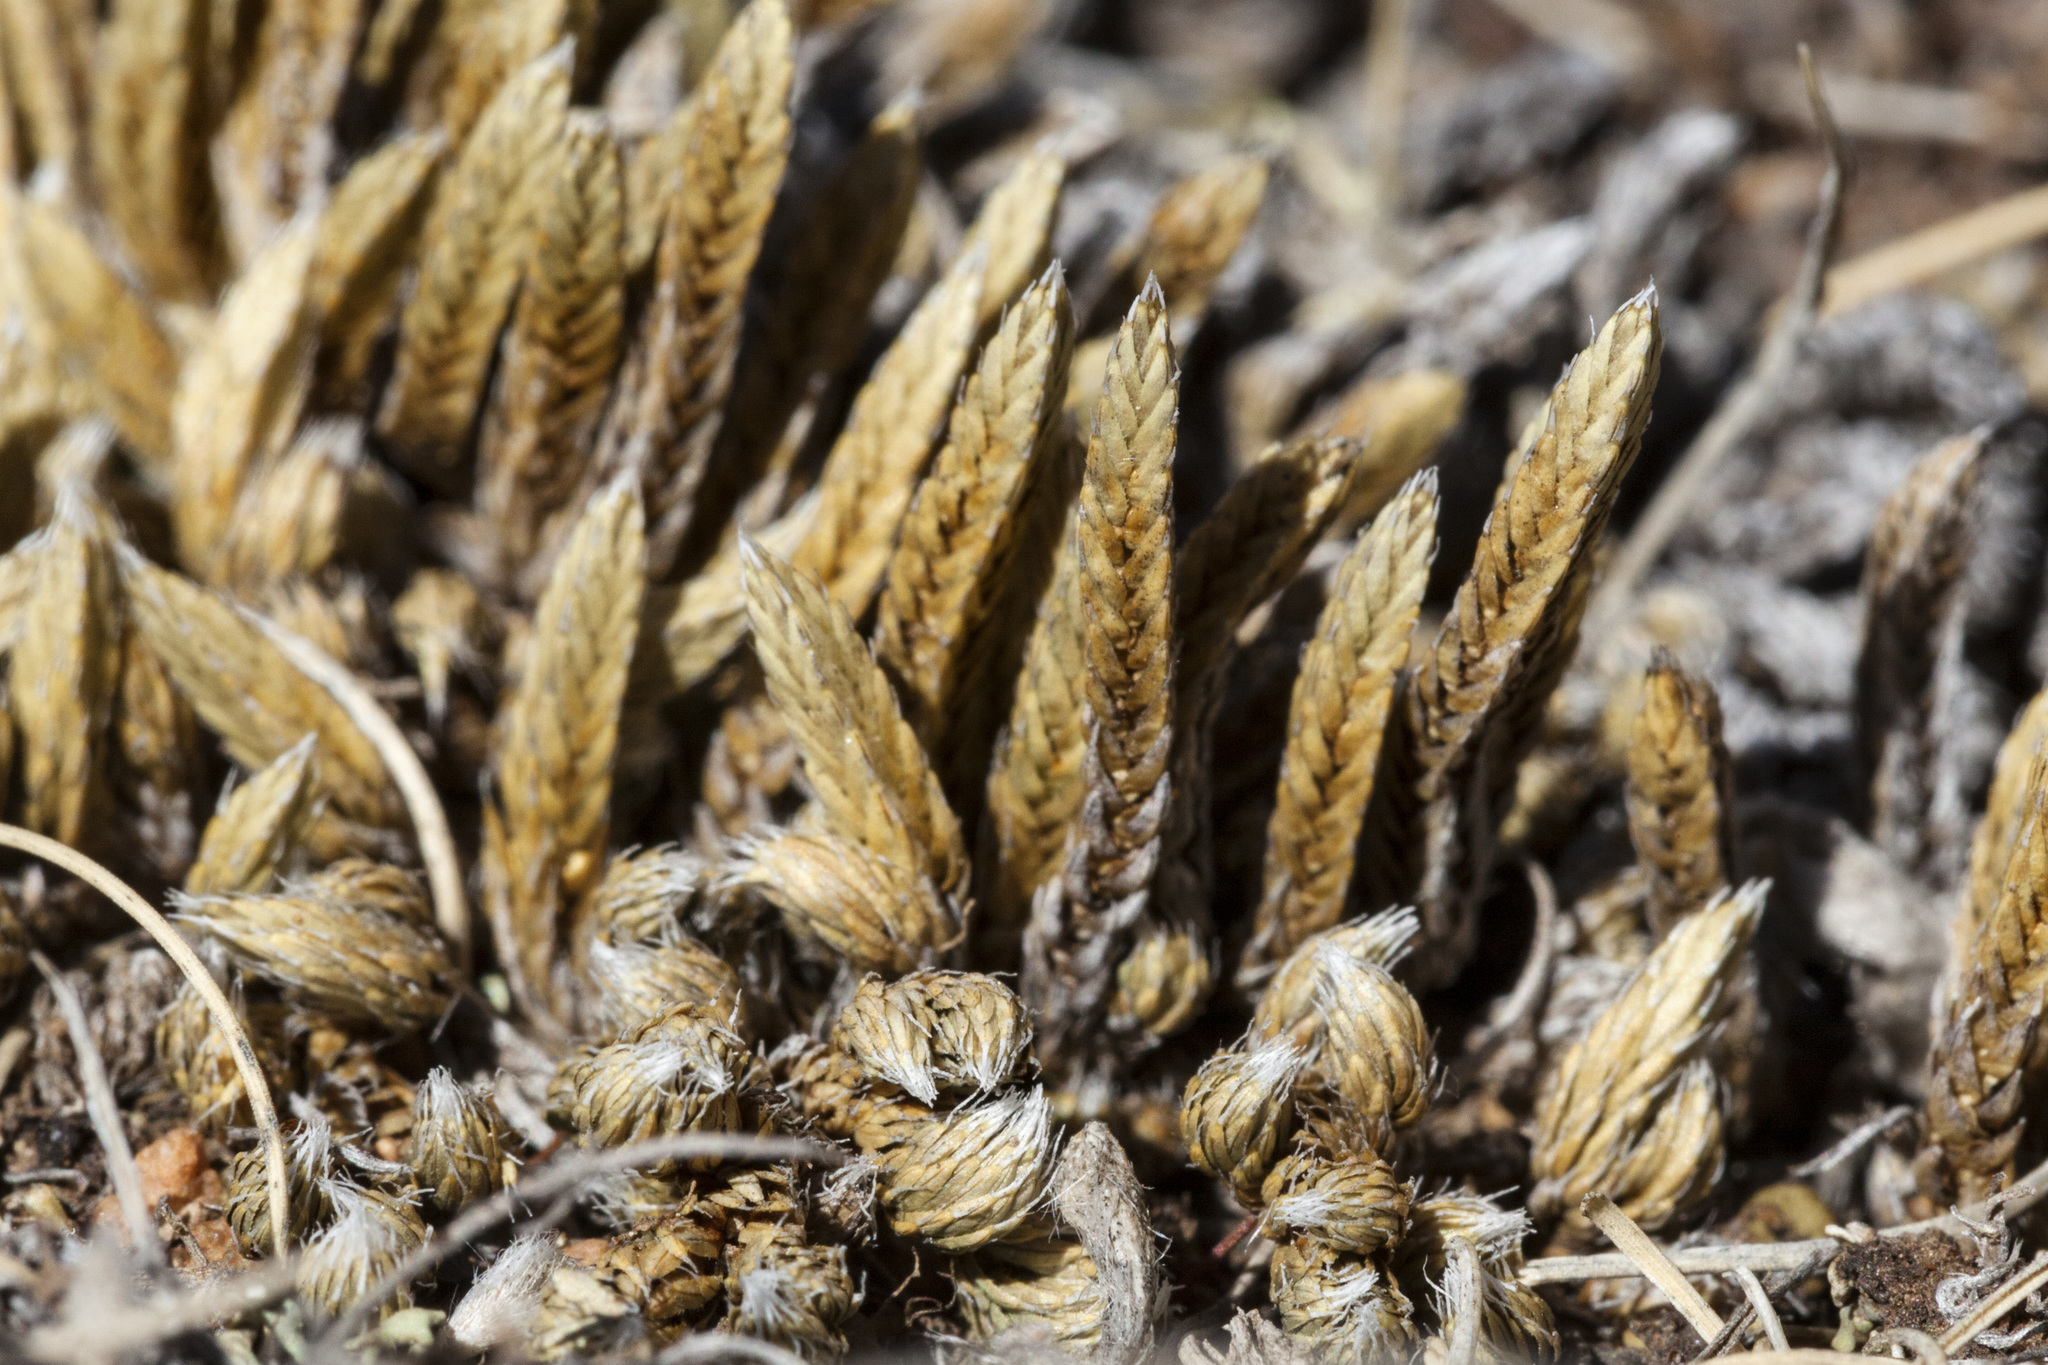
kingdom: Plantae
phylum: Tracheophyta
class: Lycopodiopsida
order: Selaginellales
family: Selaginellaceae
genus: Selaginella
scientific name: Selaginella densa
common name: Mountain spike-moss
